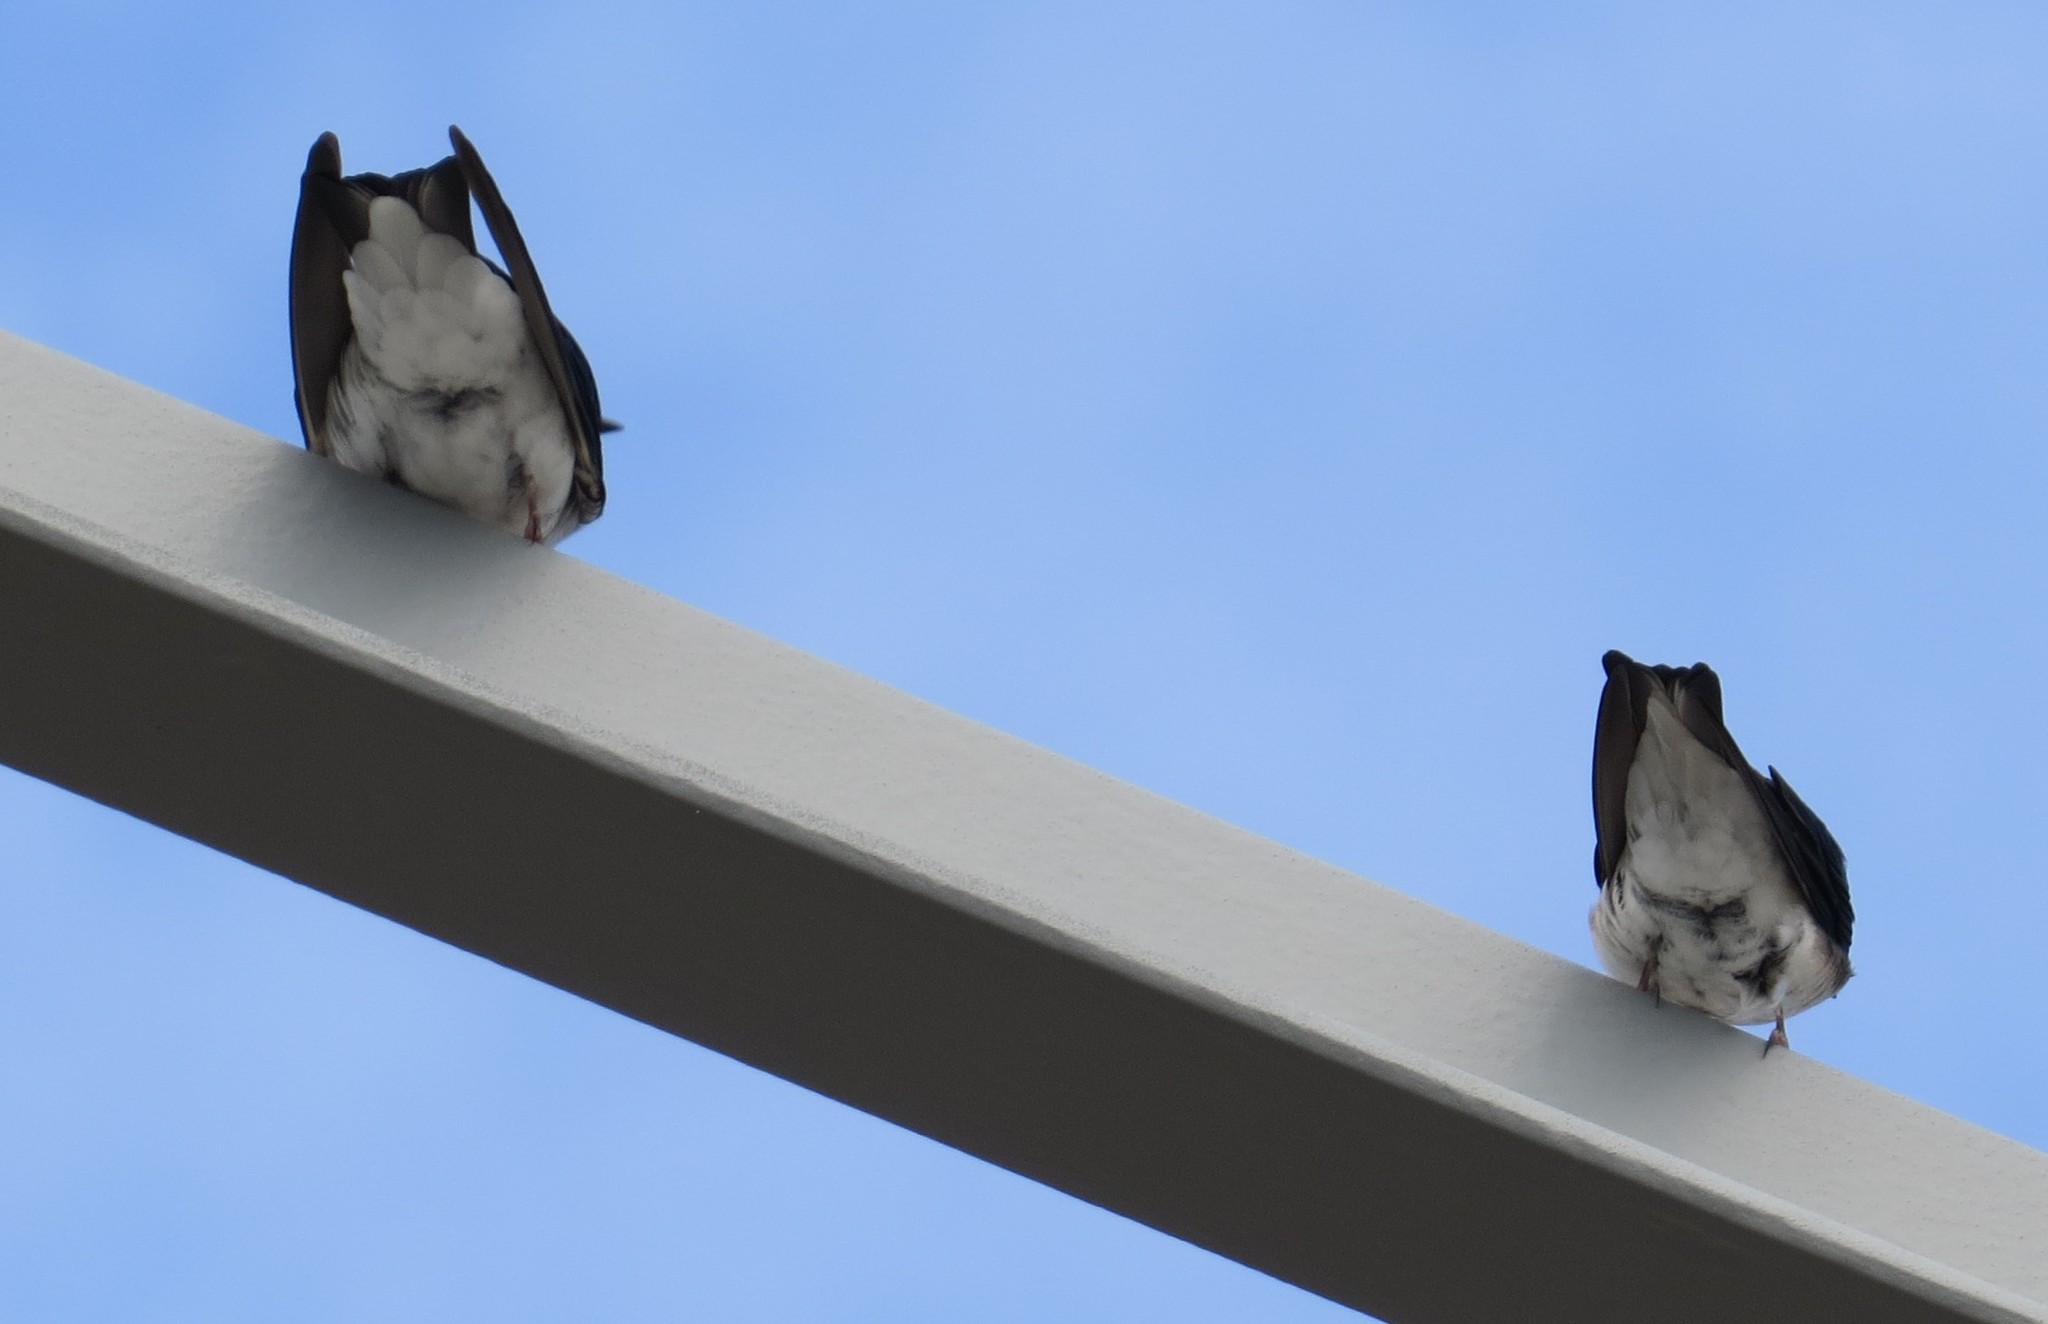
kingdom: Animalia
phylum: Chordata
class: Aves
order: Passeriformes
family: Hirundinidae
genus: Tachycineta
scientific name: Tachycineta bicolor
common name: Tree swallow
